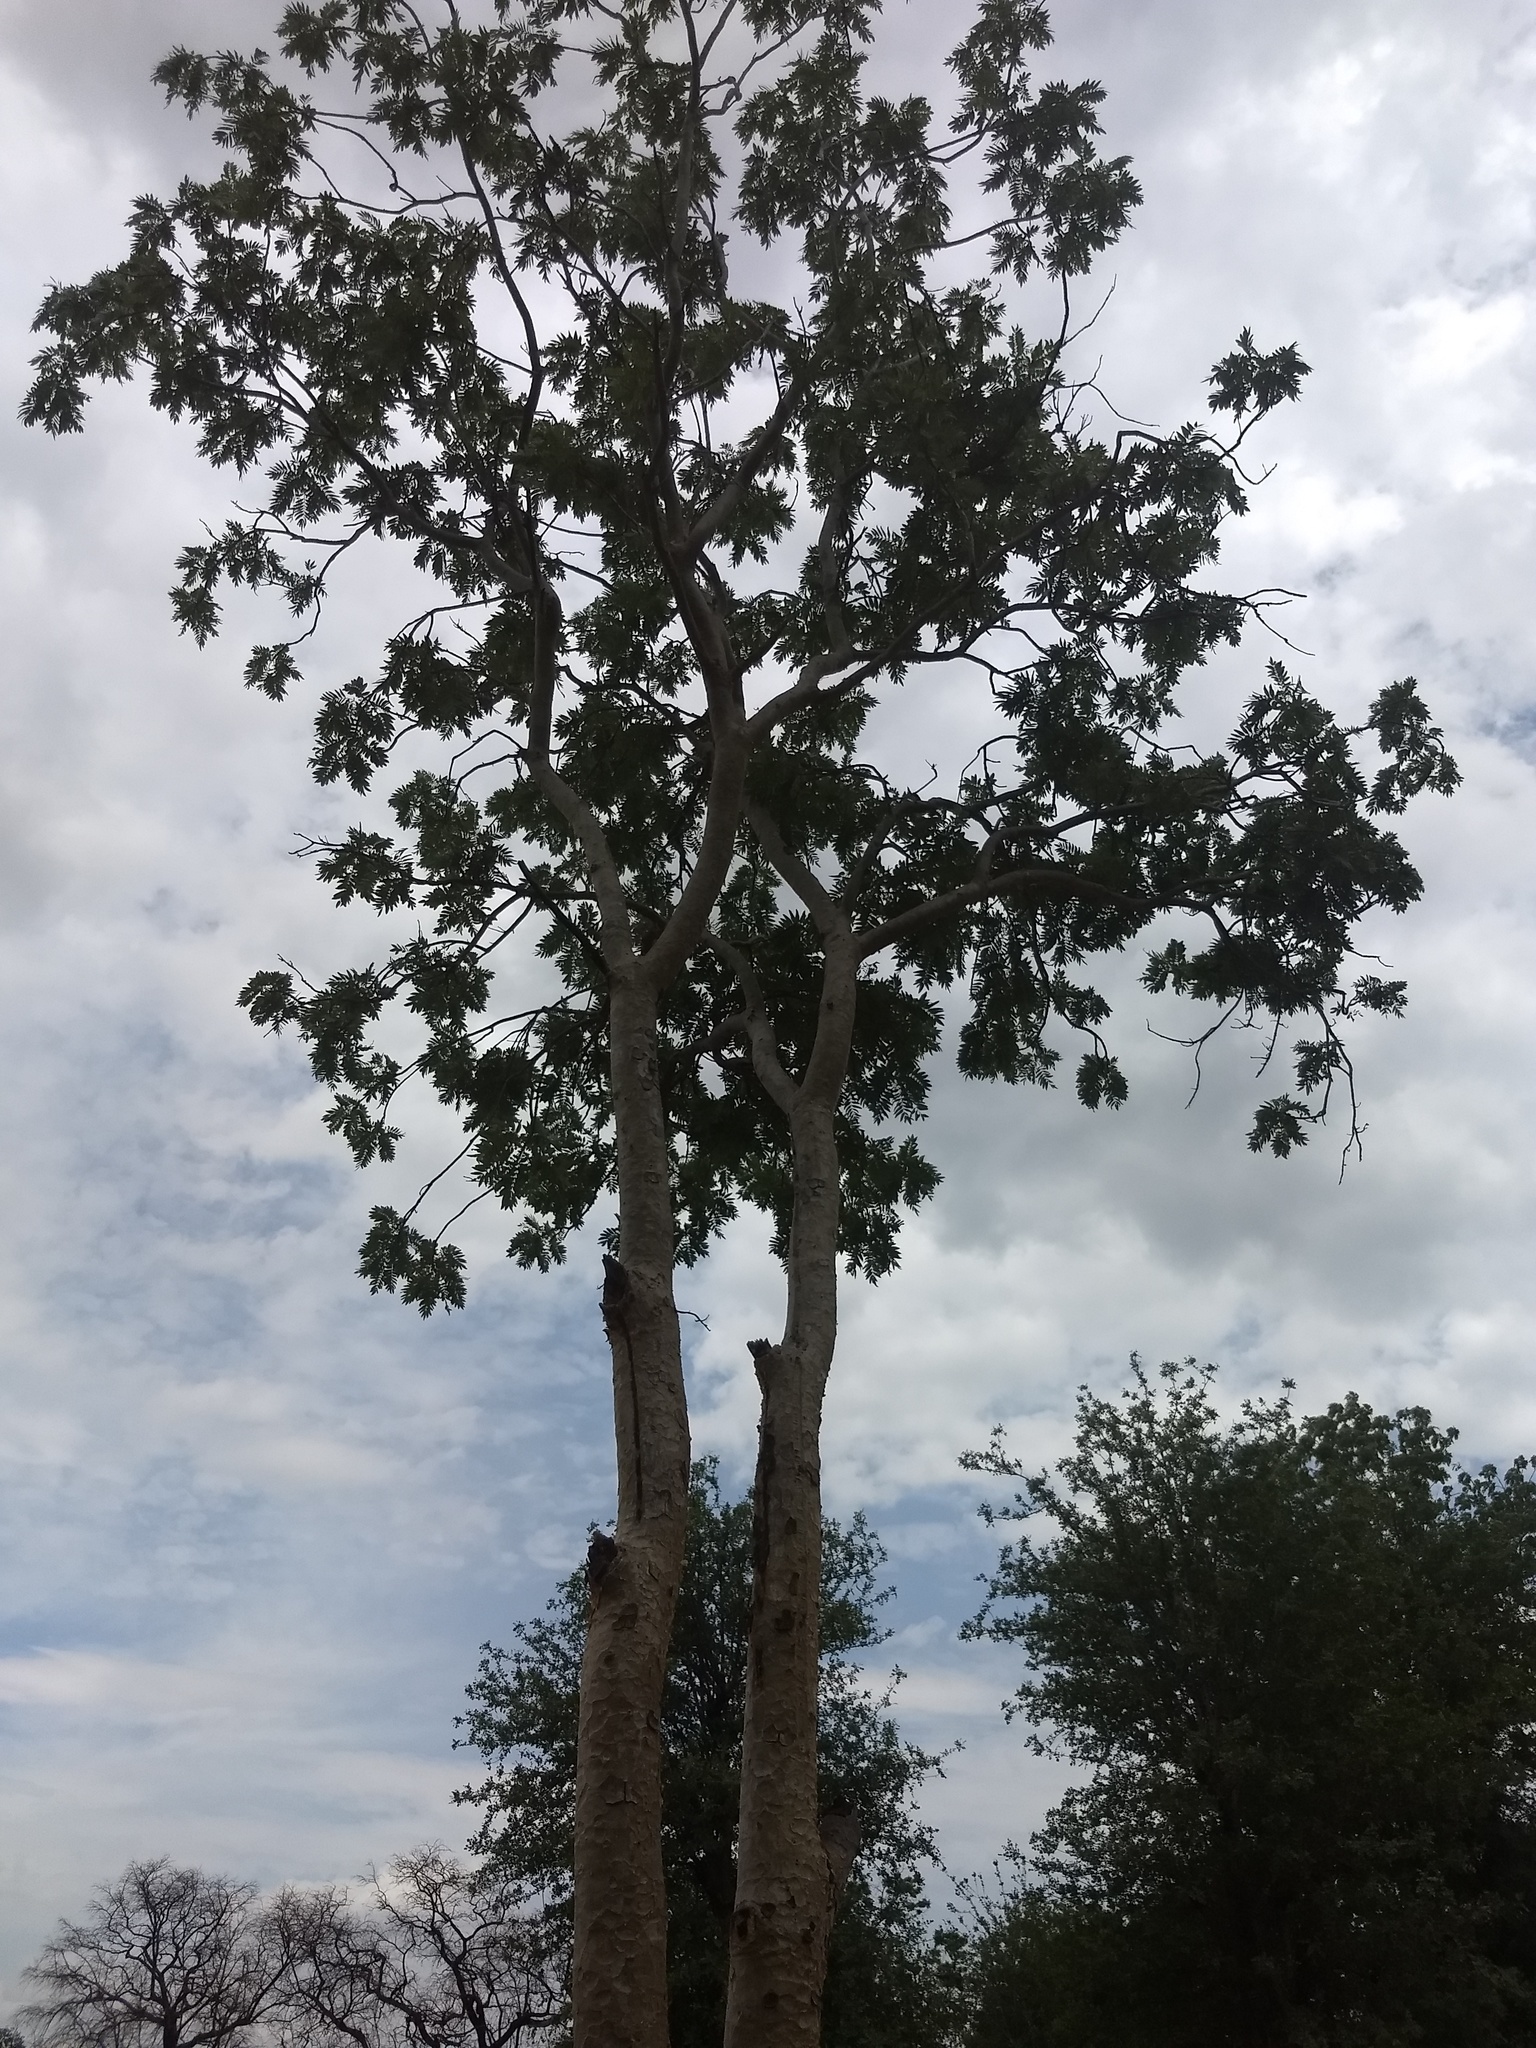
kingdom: Plantae
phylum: Tracheophyta
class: Magnoliopsida
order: Sapindales
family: Burseraceae
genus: Boswellia
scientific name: Boswellia serrata
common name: Boswellia
